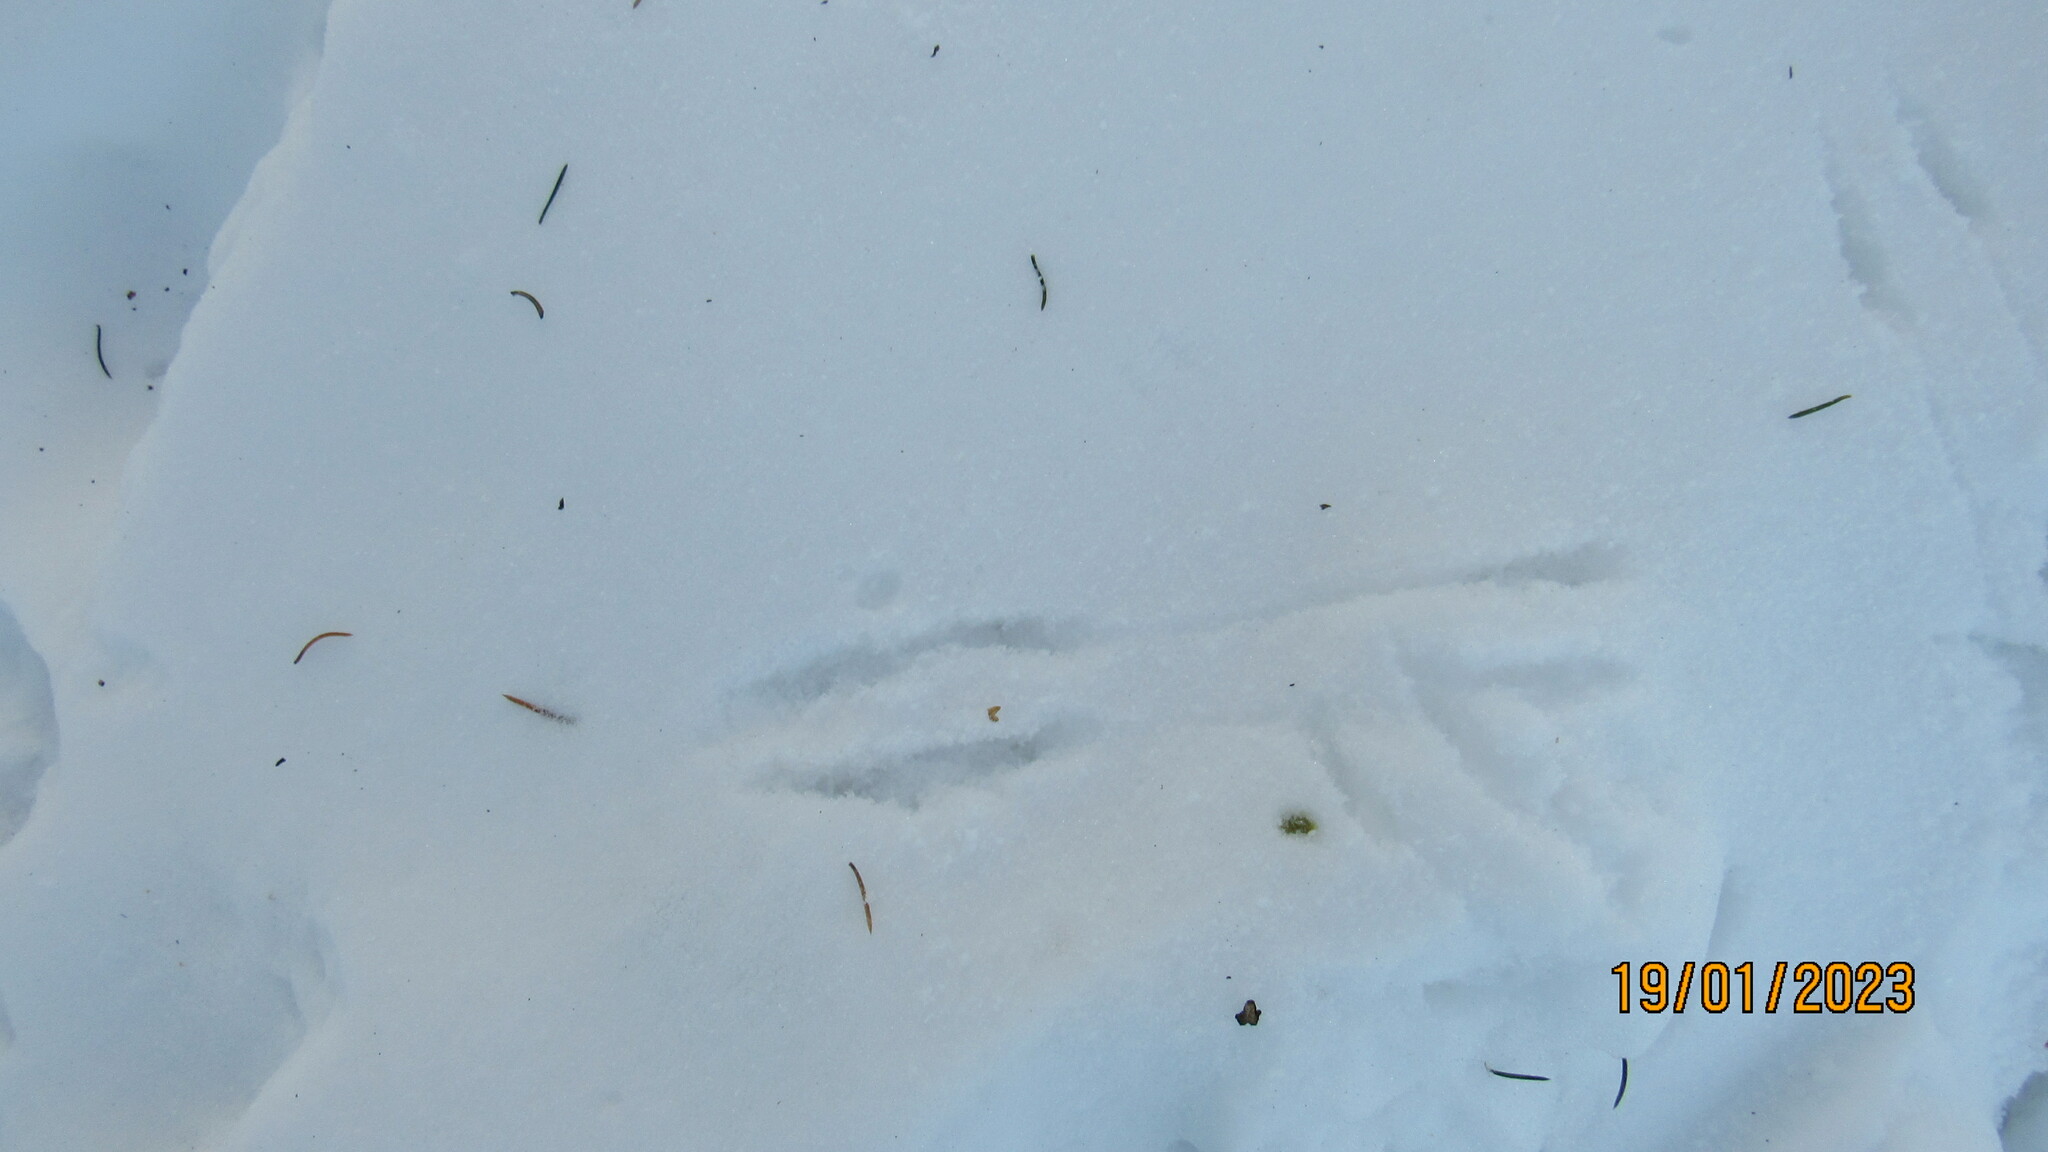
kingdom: Animalia
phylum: Chordata
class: Mammalia
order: Rodentia
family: Sciuridae
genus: Sciurus
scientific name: Sciurus vulgaris
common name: Eurasian red squirrel
